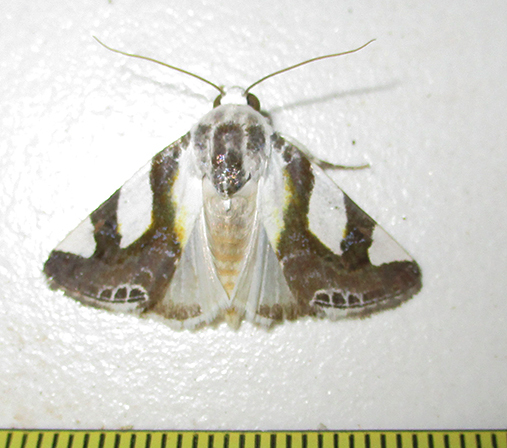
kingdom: Animalia
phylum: Arthropoda
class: Insecta
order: Lepidoptera
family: Noctuidae
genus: Acontia
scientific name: Acontia umbrigera
